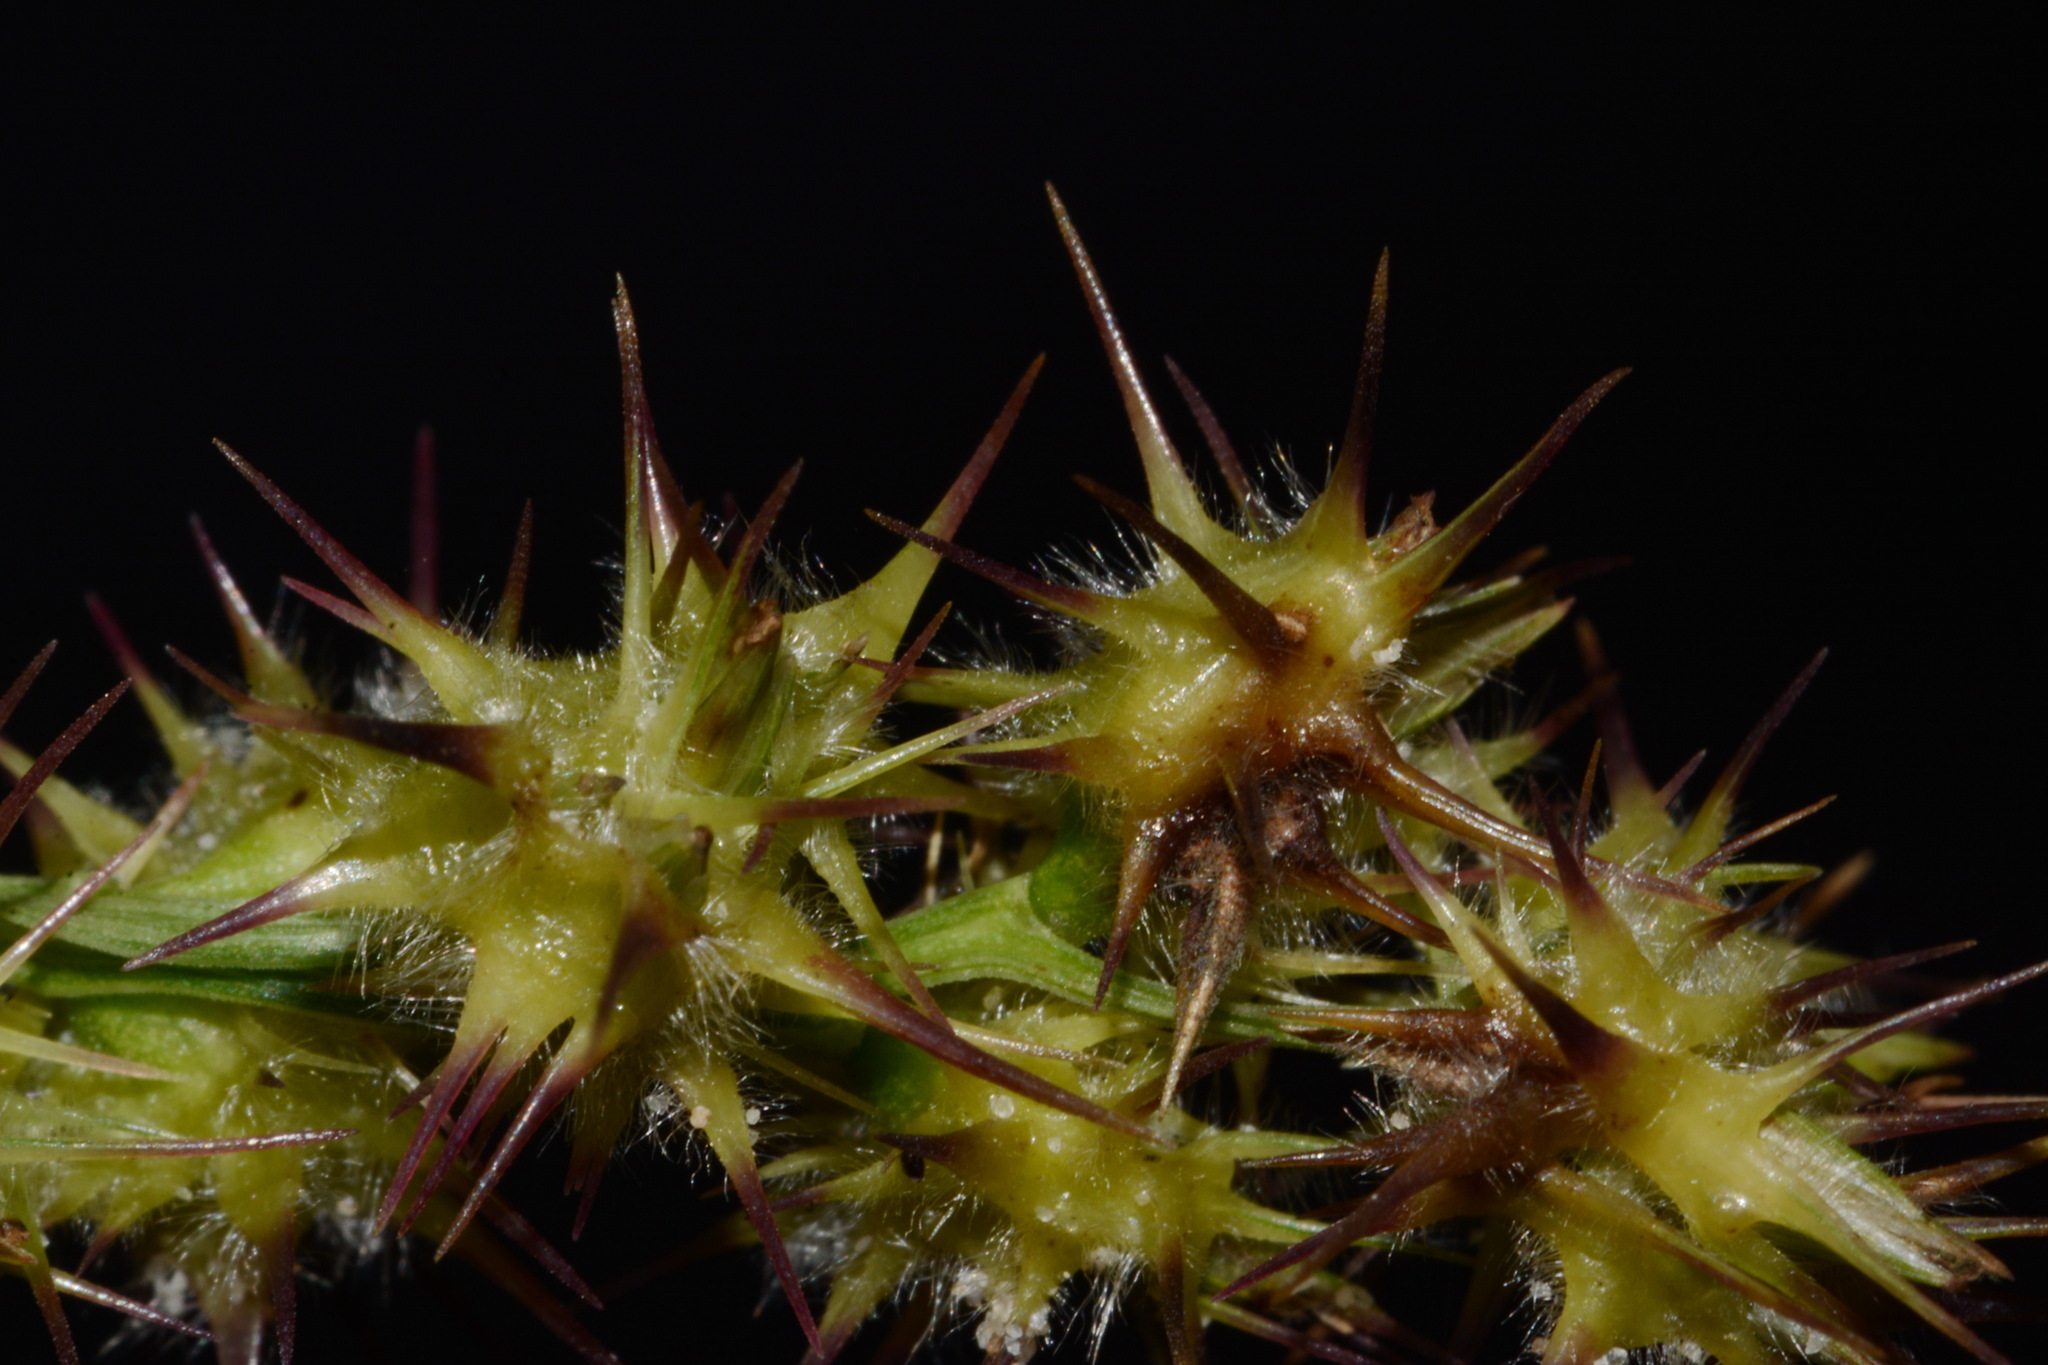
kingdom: Plantae
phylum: Tracheophyta
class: Liliopsida
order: Poales
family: Poaceae
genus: Cenchrus
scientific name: Cenchrus longispinus
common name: Mat sandbur
